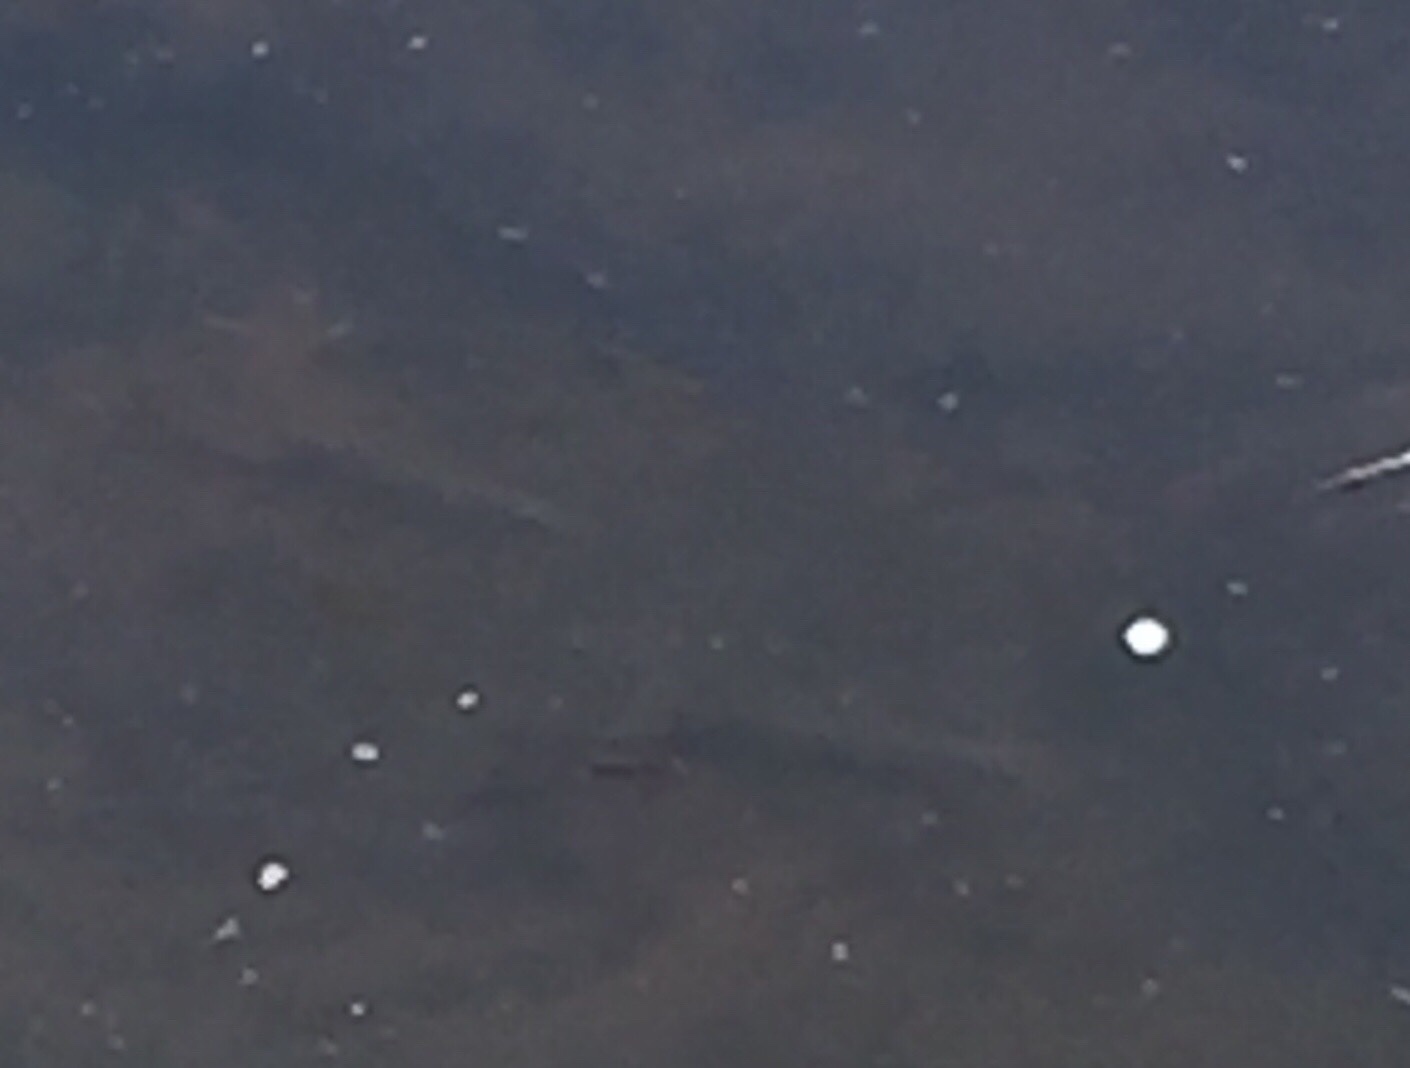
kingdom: Animalia
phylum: Chordata
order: Cypriniformes
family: Cyprinidae
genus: Scardinius
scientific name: Scardinius erythrophthalmus
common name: Rudd
